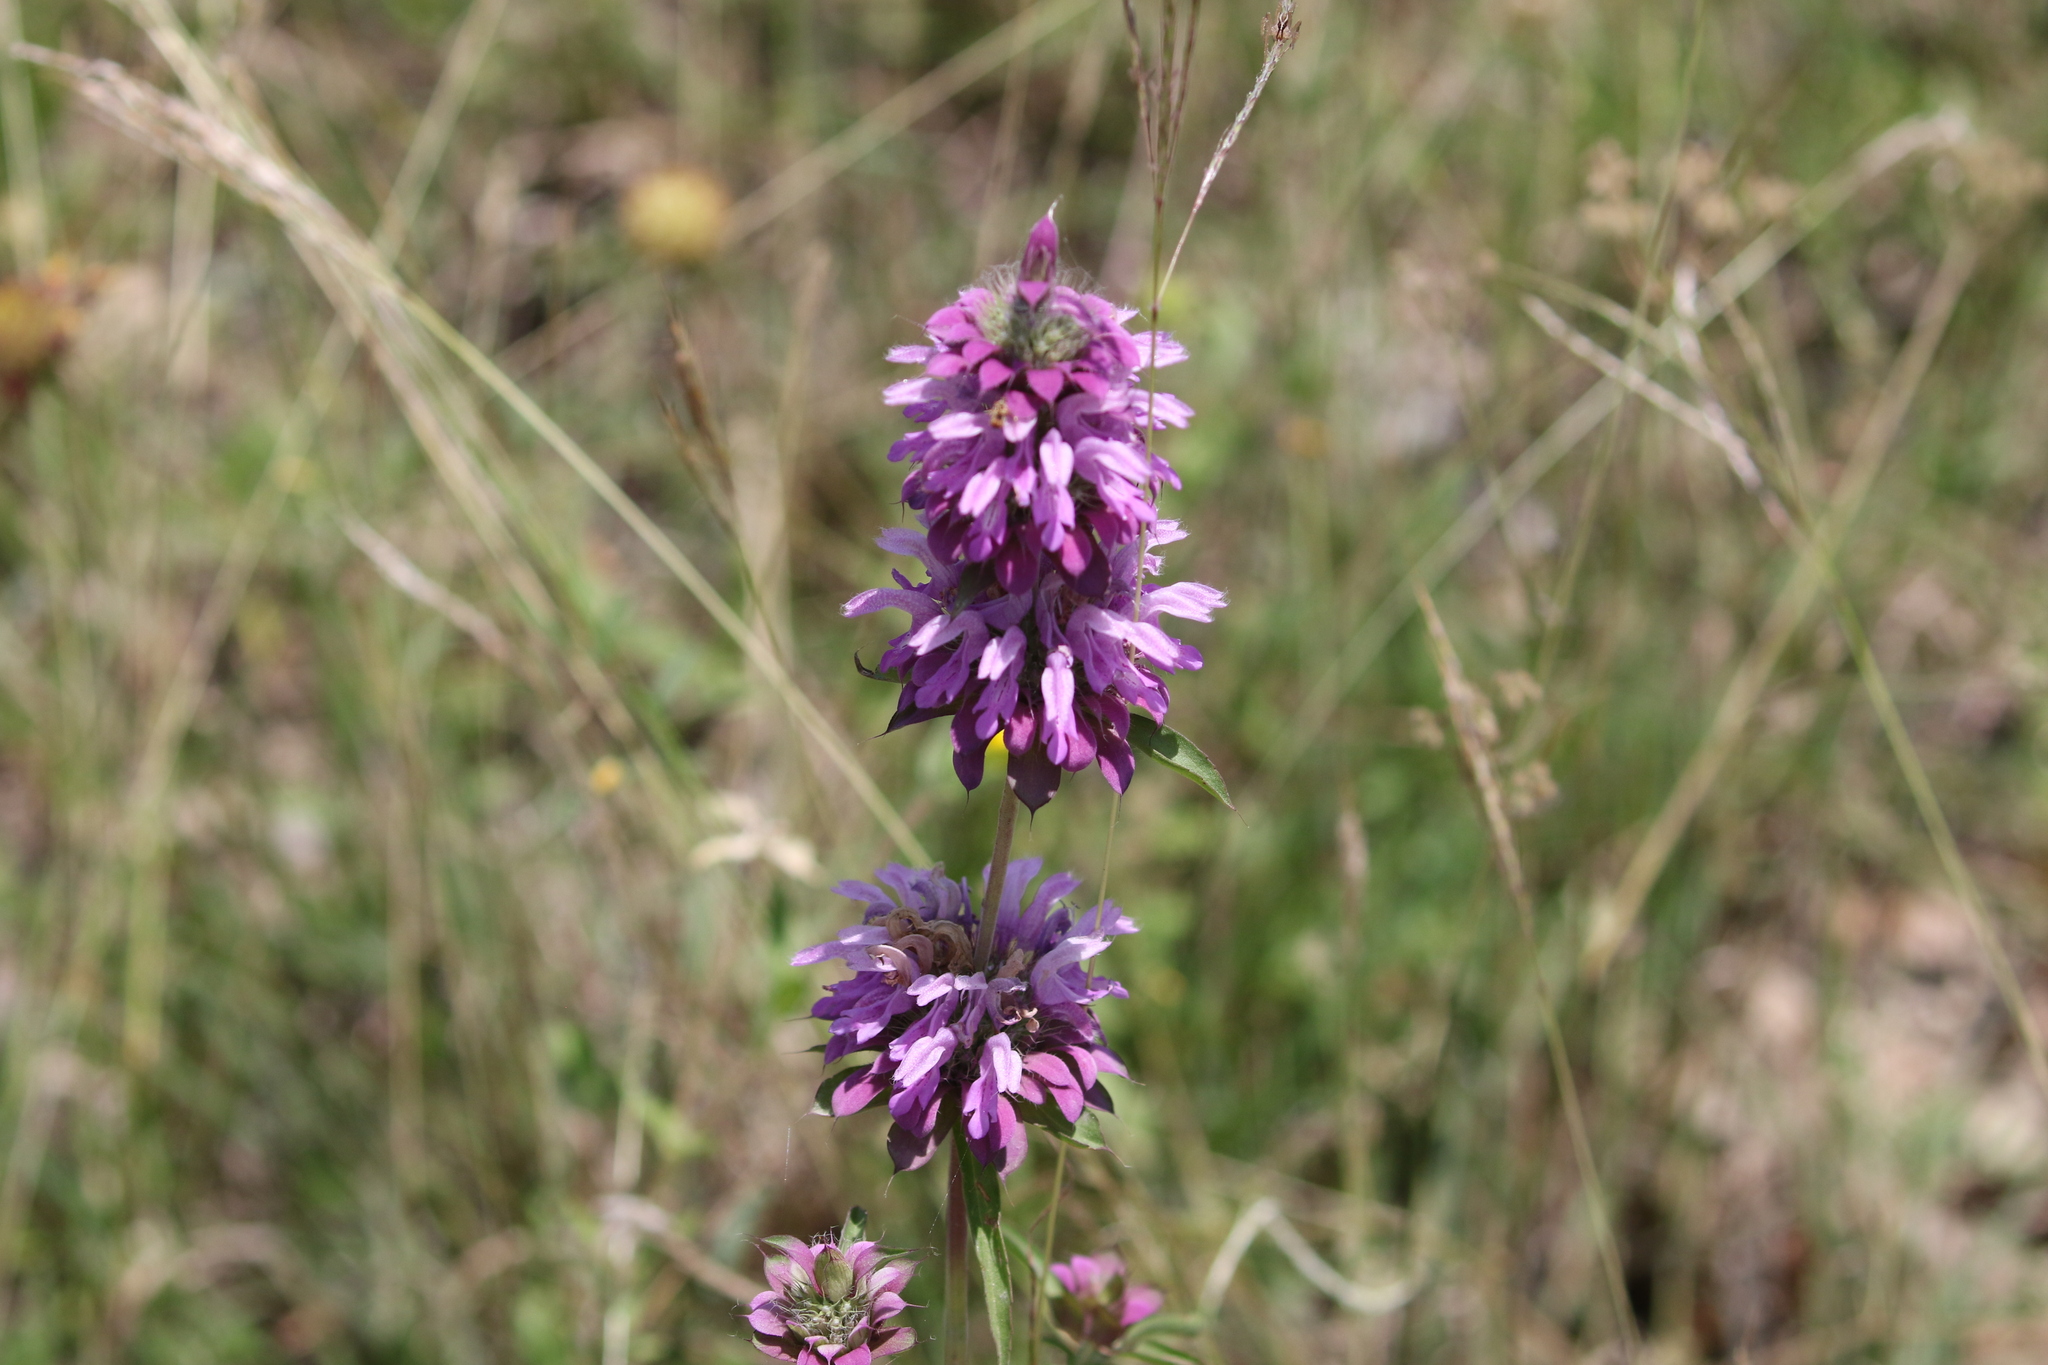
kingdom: Plantae
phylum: Tracheophyta
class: Magnoliopsida
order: Lamiales
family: Lamiaceae
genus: Monarda
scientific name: Monarda citriodora
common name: Lemon beebalm
